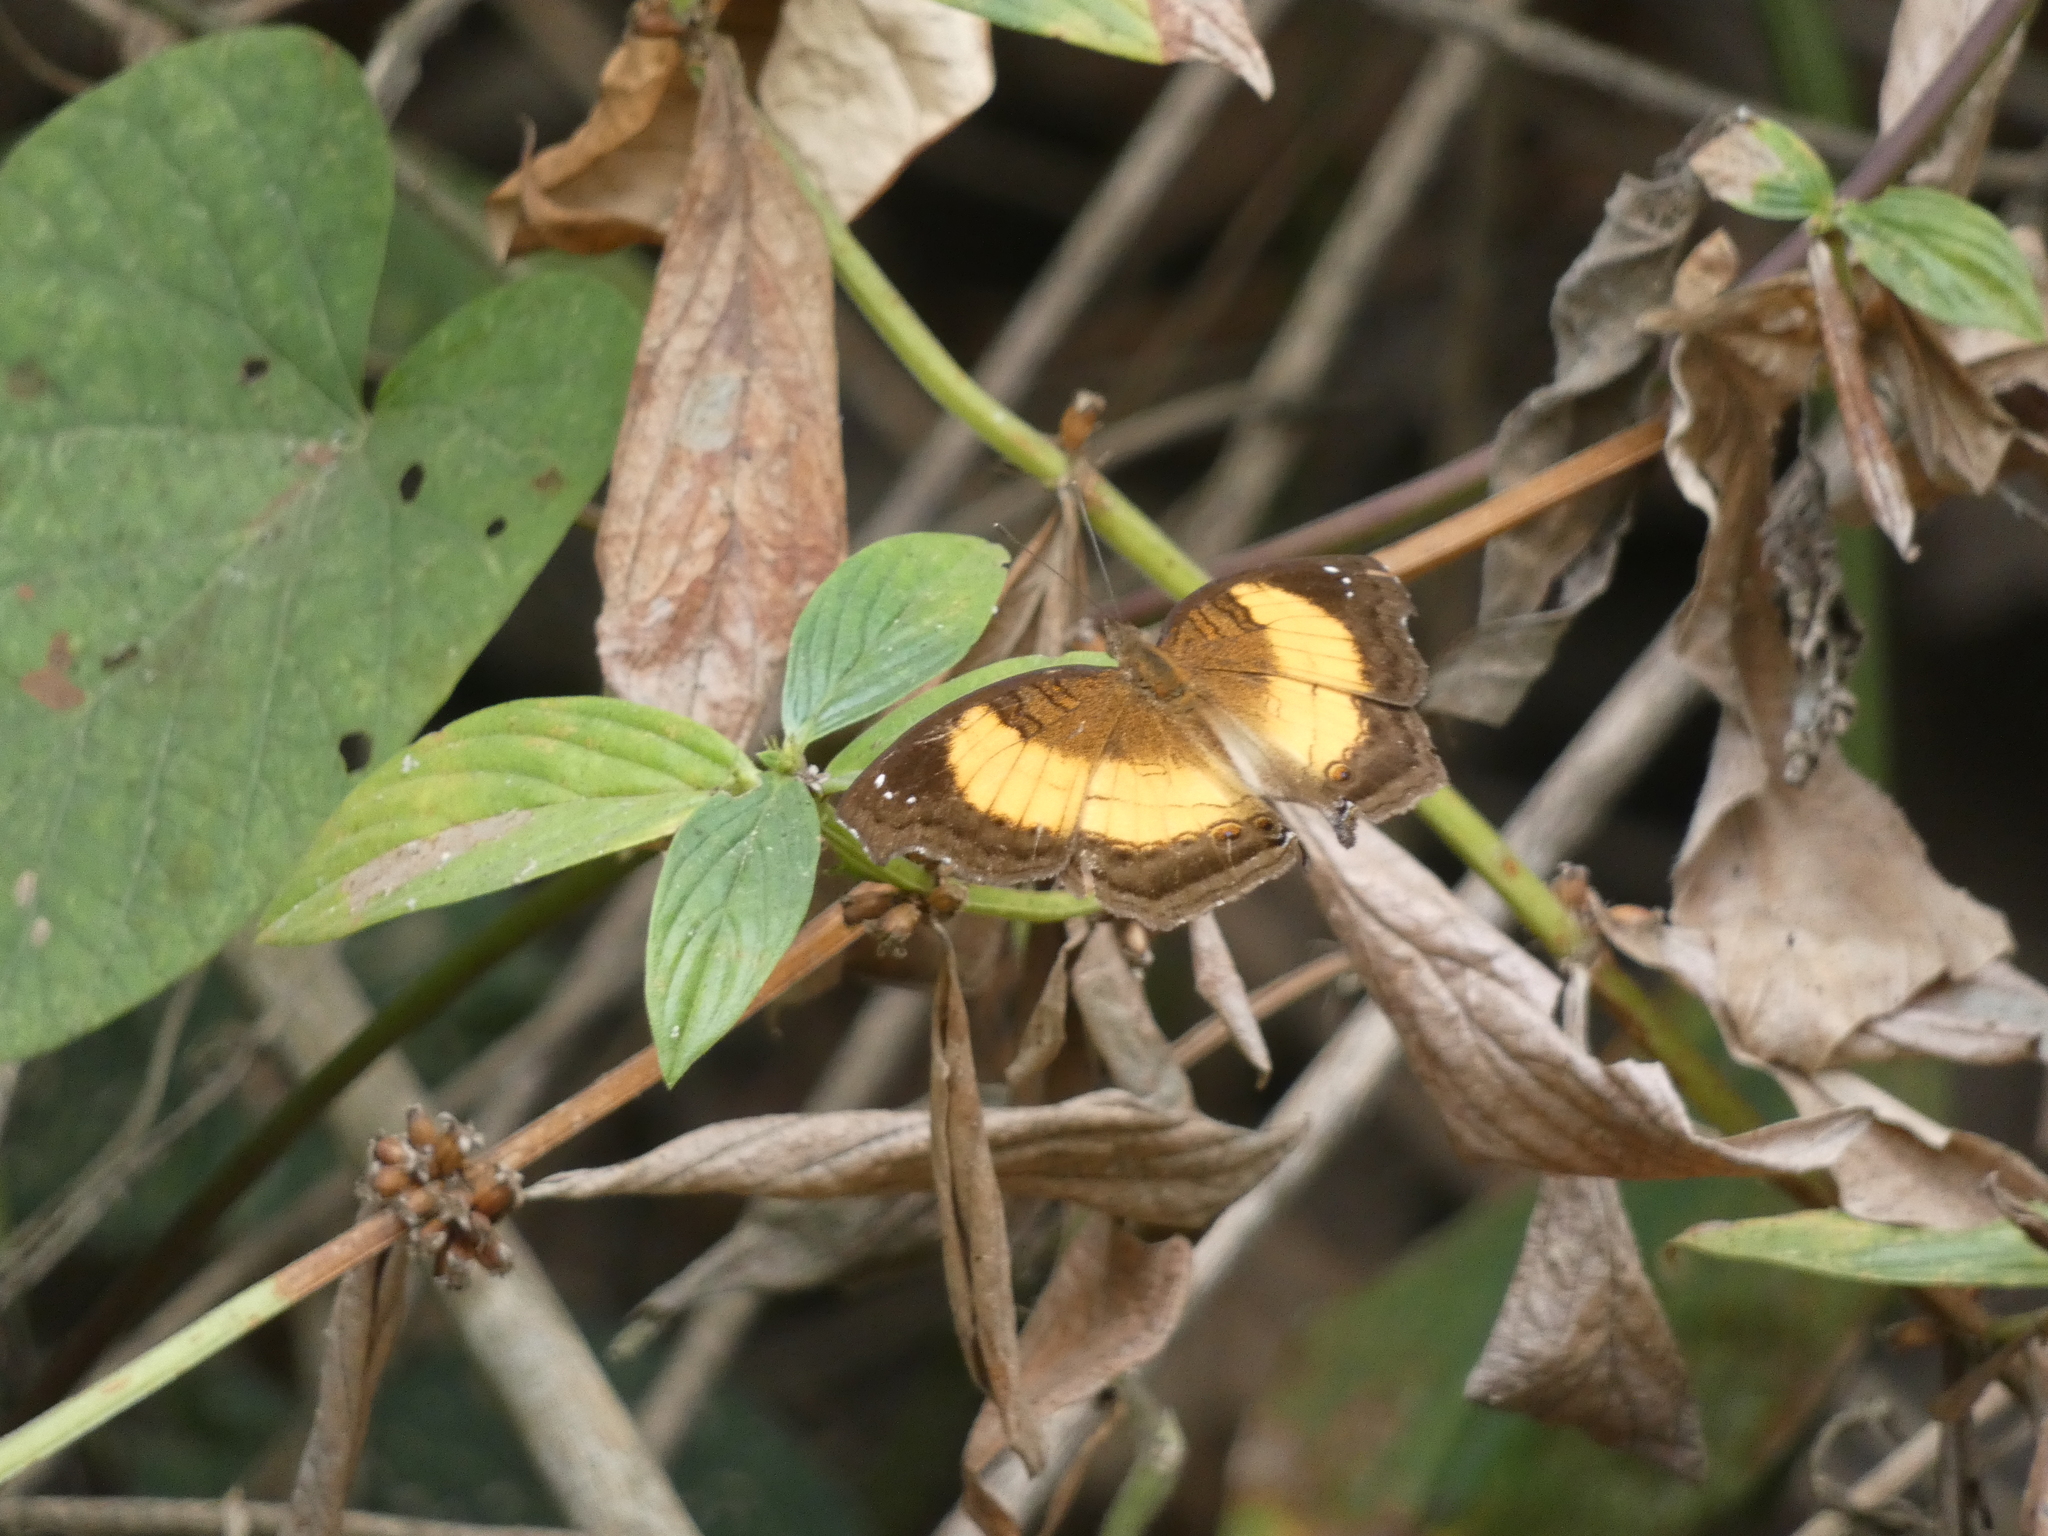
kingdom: Animalia
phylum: Arthropoda
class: Insecta
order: Lepidoptera
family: Nymphalidae
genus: Junonia
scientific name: Junonia terea
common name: Soldier pansy
